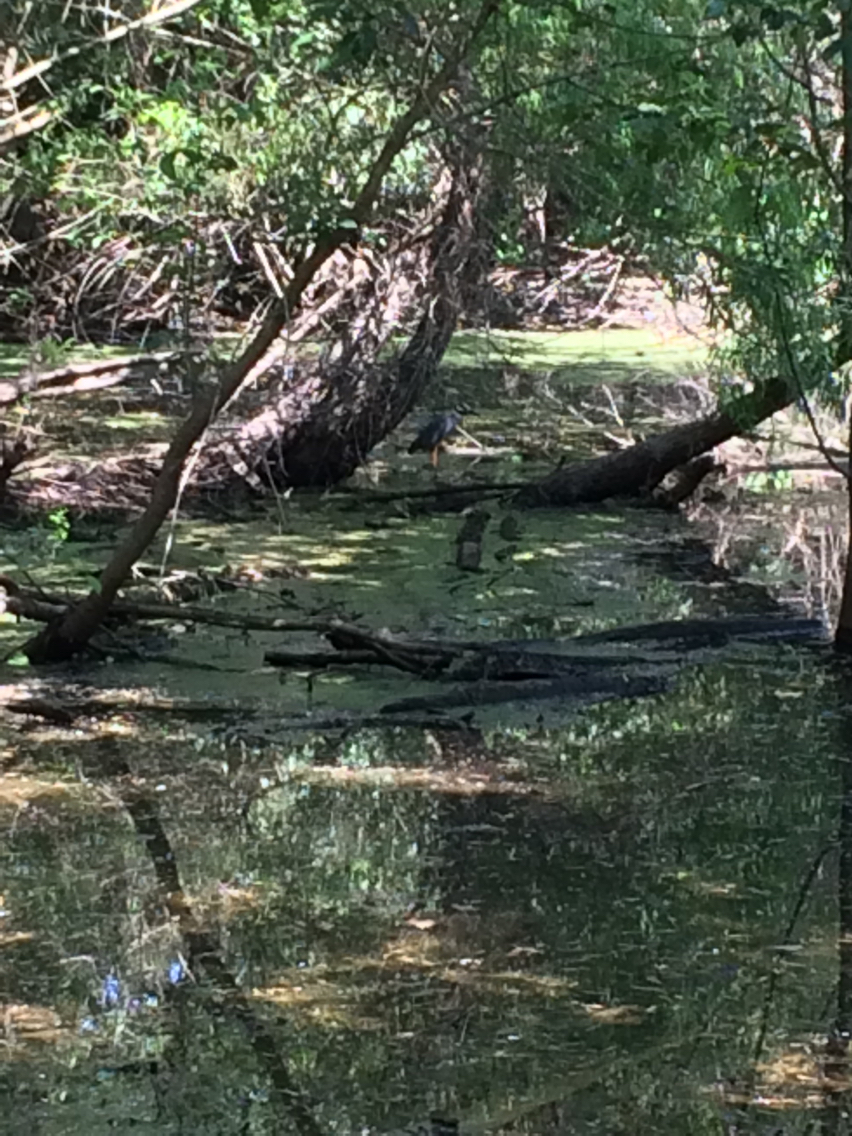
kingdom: Animalia
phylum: Chordata
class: Aves
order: Pelecaniformes
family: Ardeidae
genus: Nyctanassa
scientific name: Nyctanassa violacea
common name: Yellow-crowned night heron
